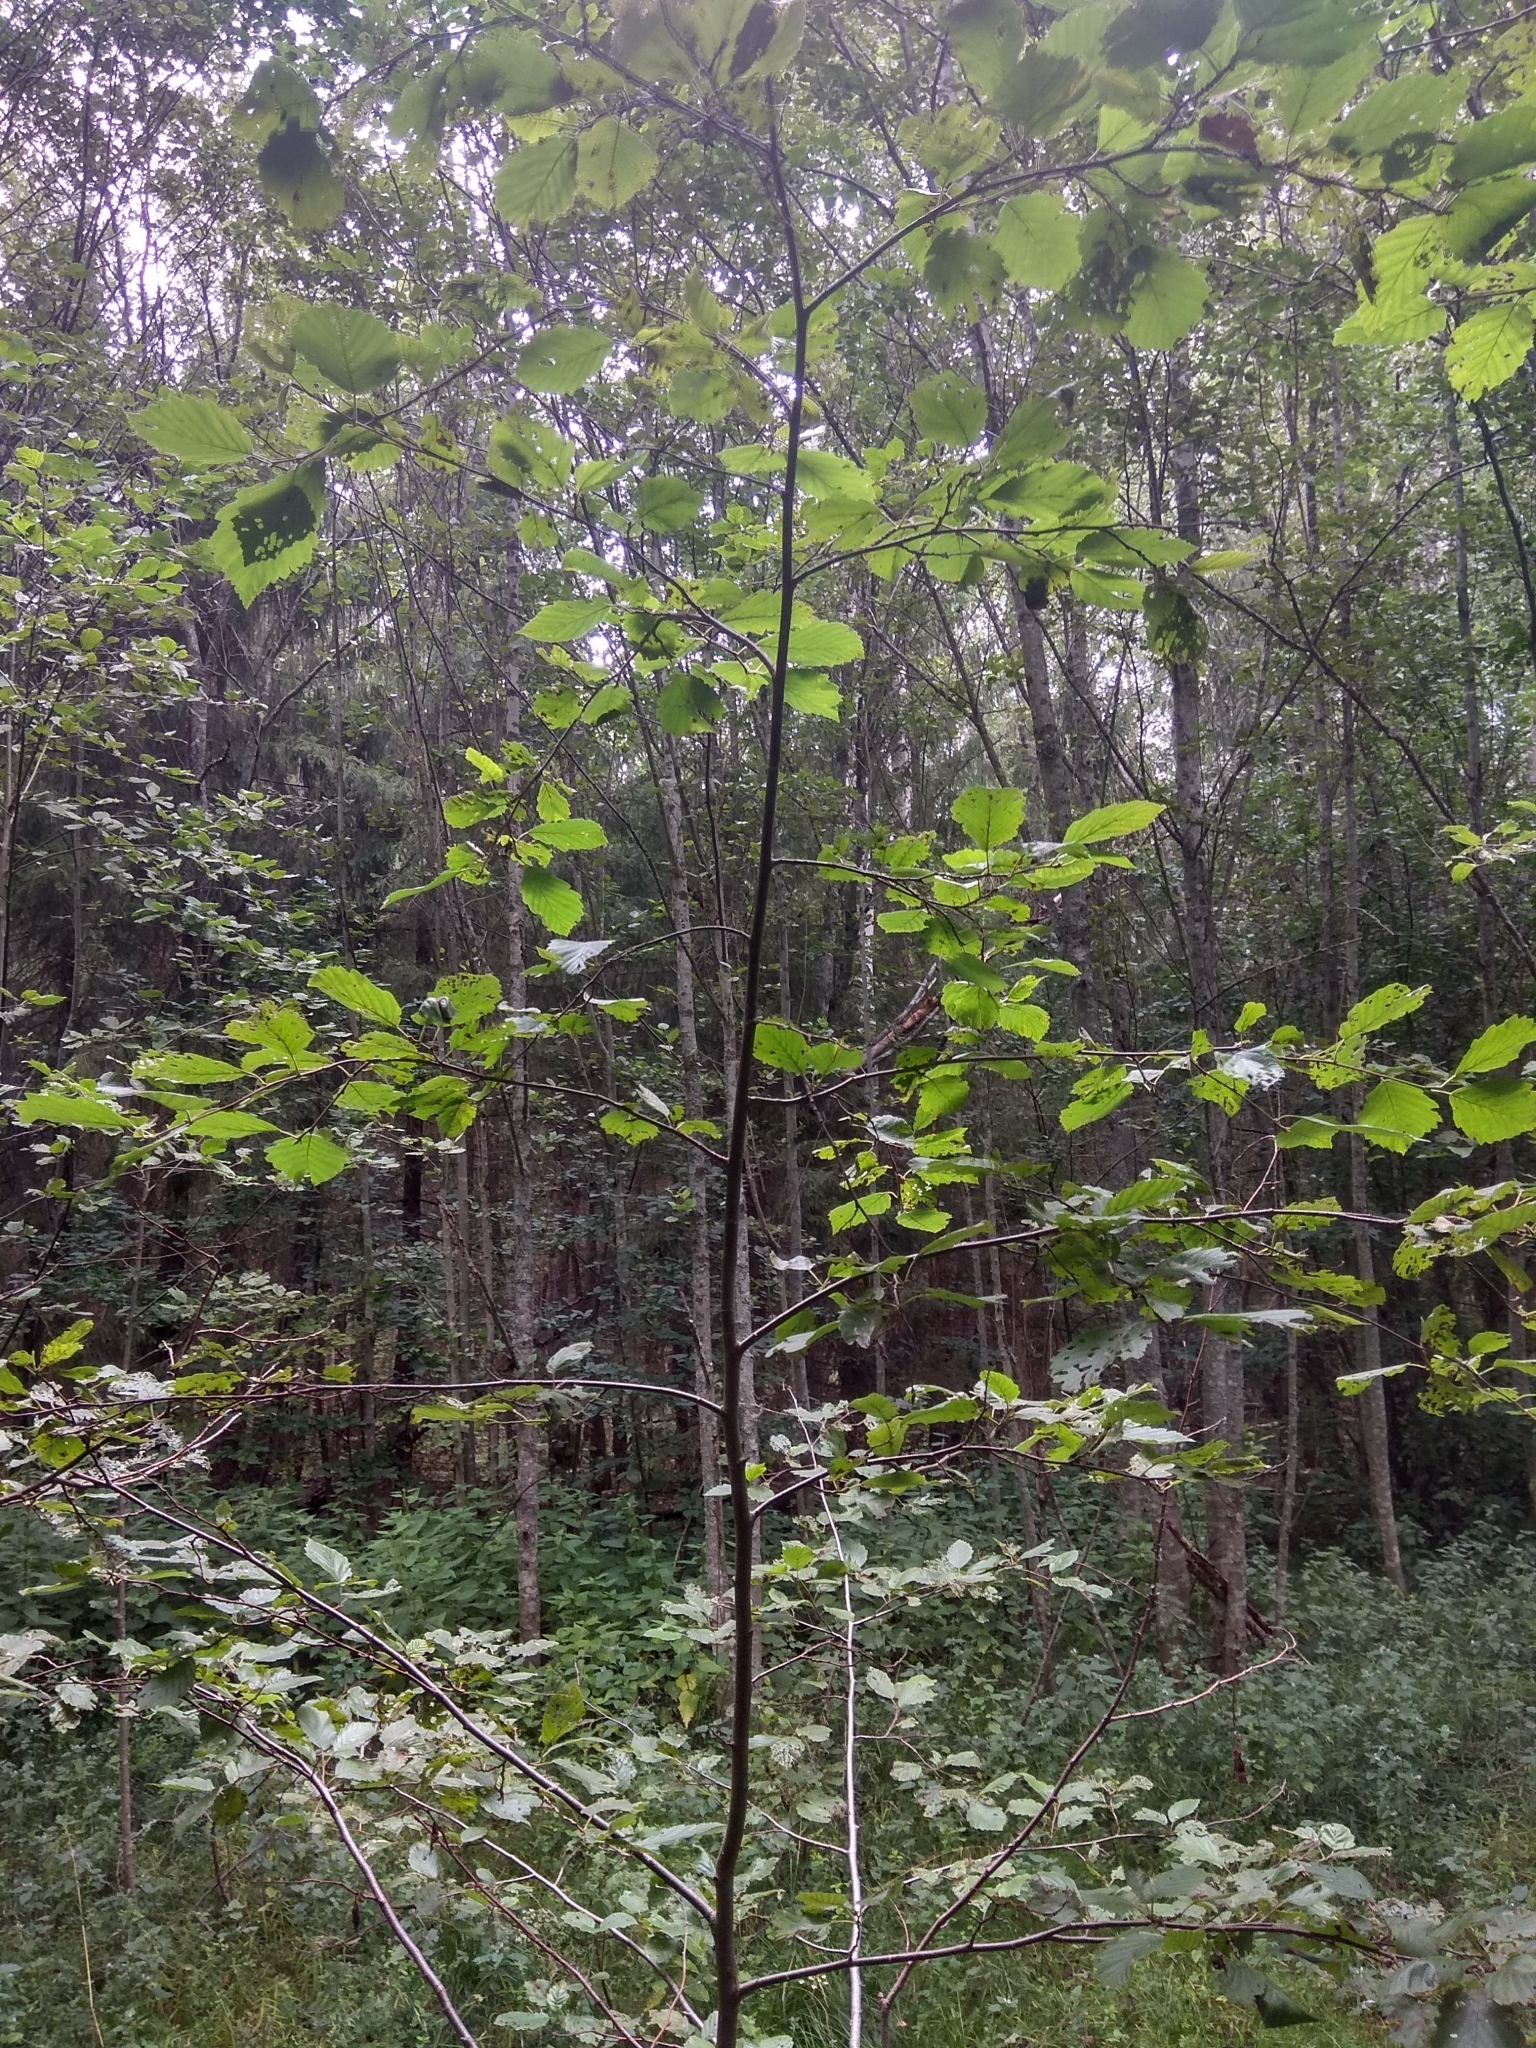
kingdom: Plantae
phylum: Tracheophyta
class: Magnoliopsida
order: Fagales
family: Betulaceae
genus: Alnus
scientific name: Alnus incana
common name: Grey alder
